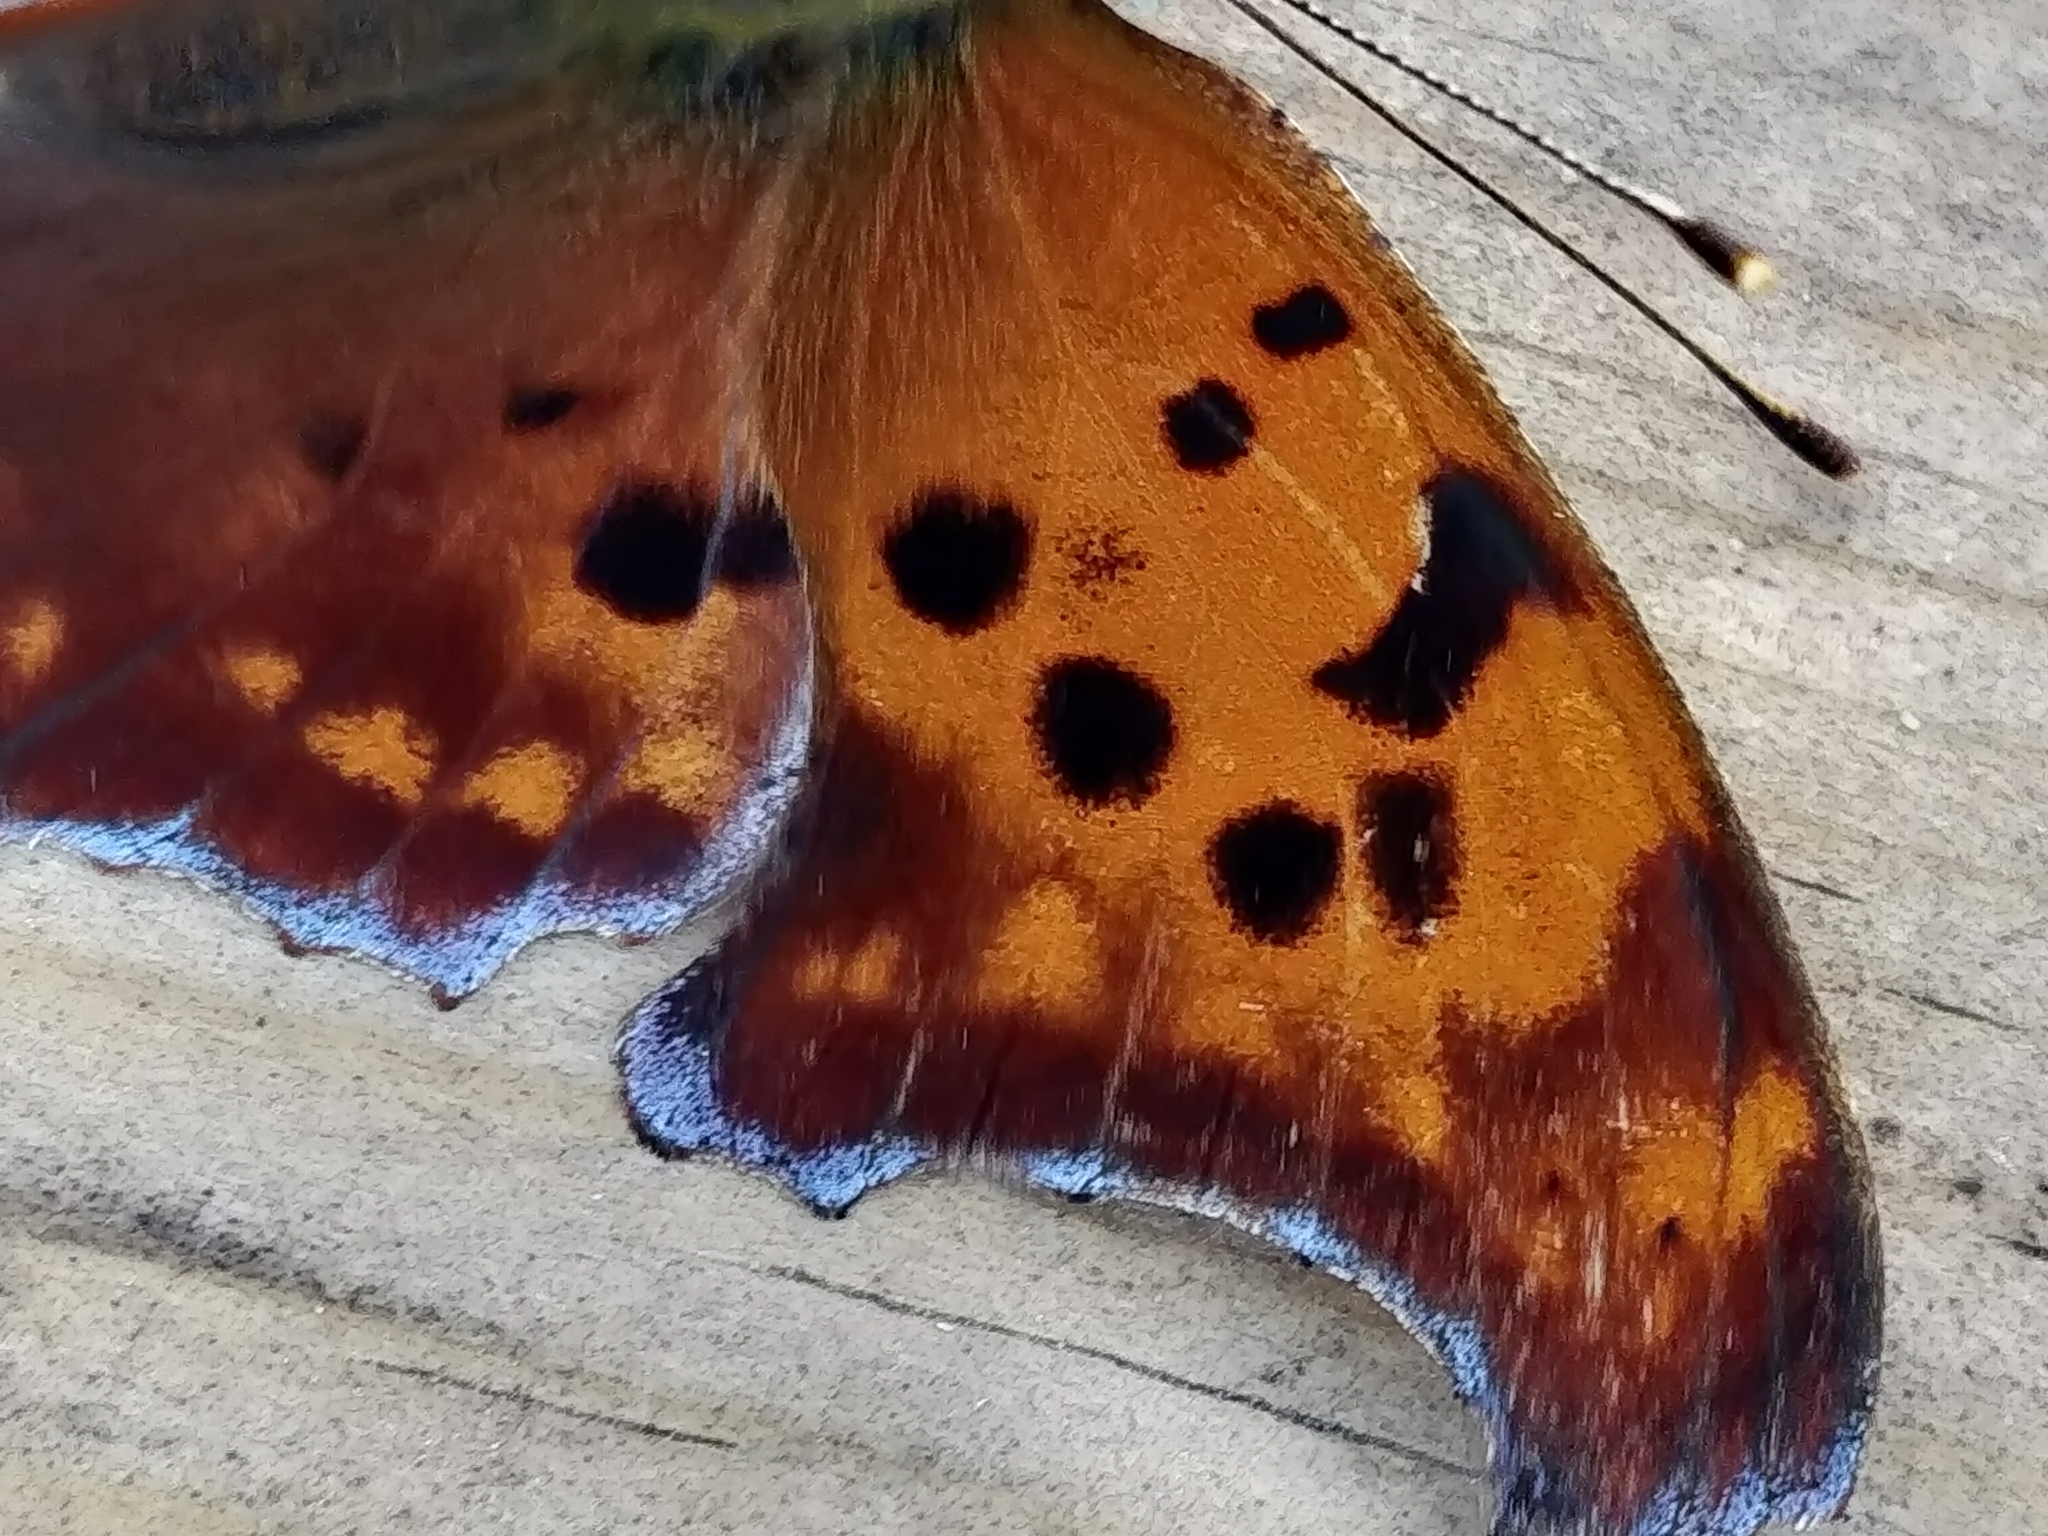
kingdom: Animalia
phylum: Arthropoda
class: Insecta
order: Lepidoptera
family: Nymphalidae
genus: Polygonia
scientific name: Polygonia interrogationis
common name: Question mark
